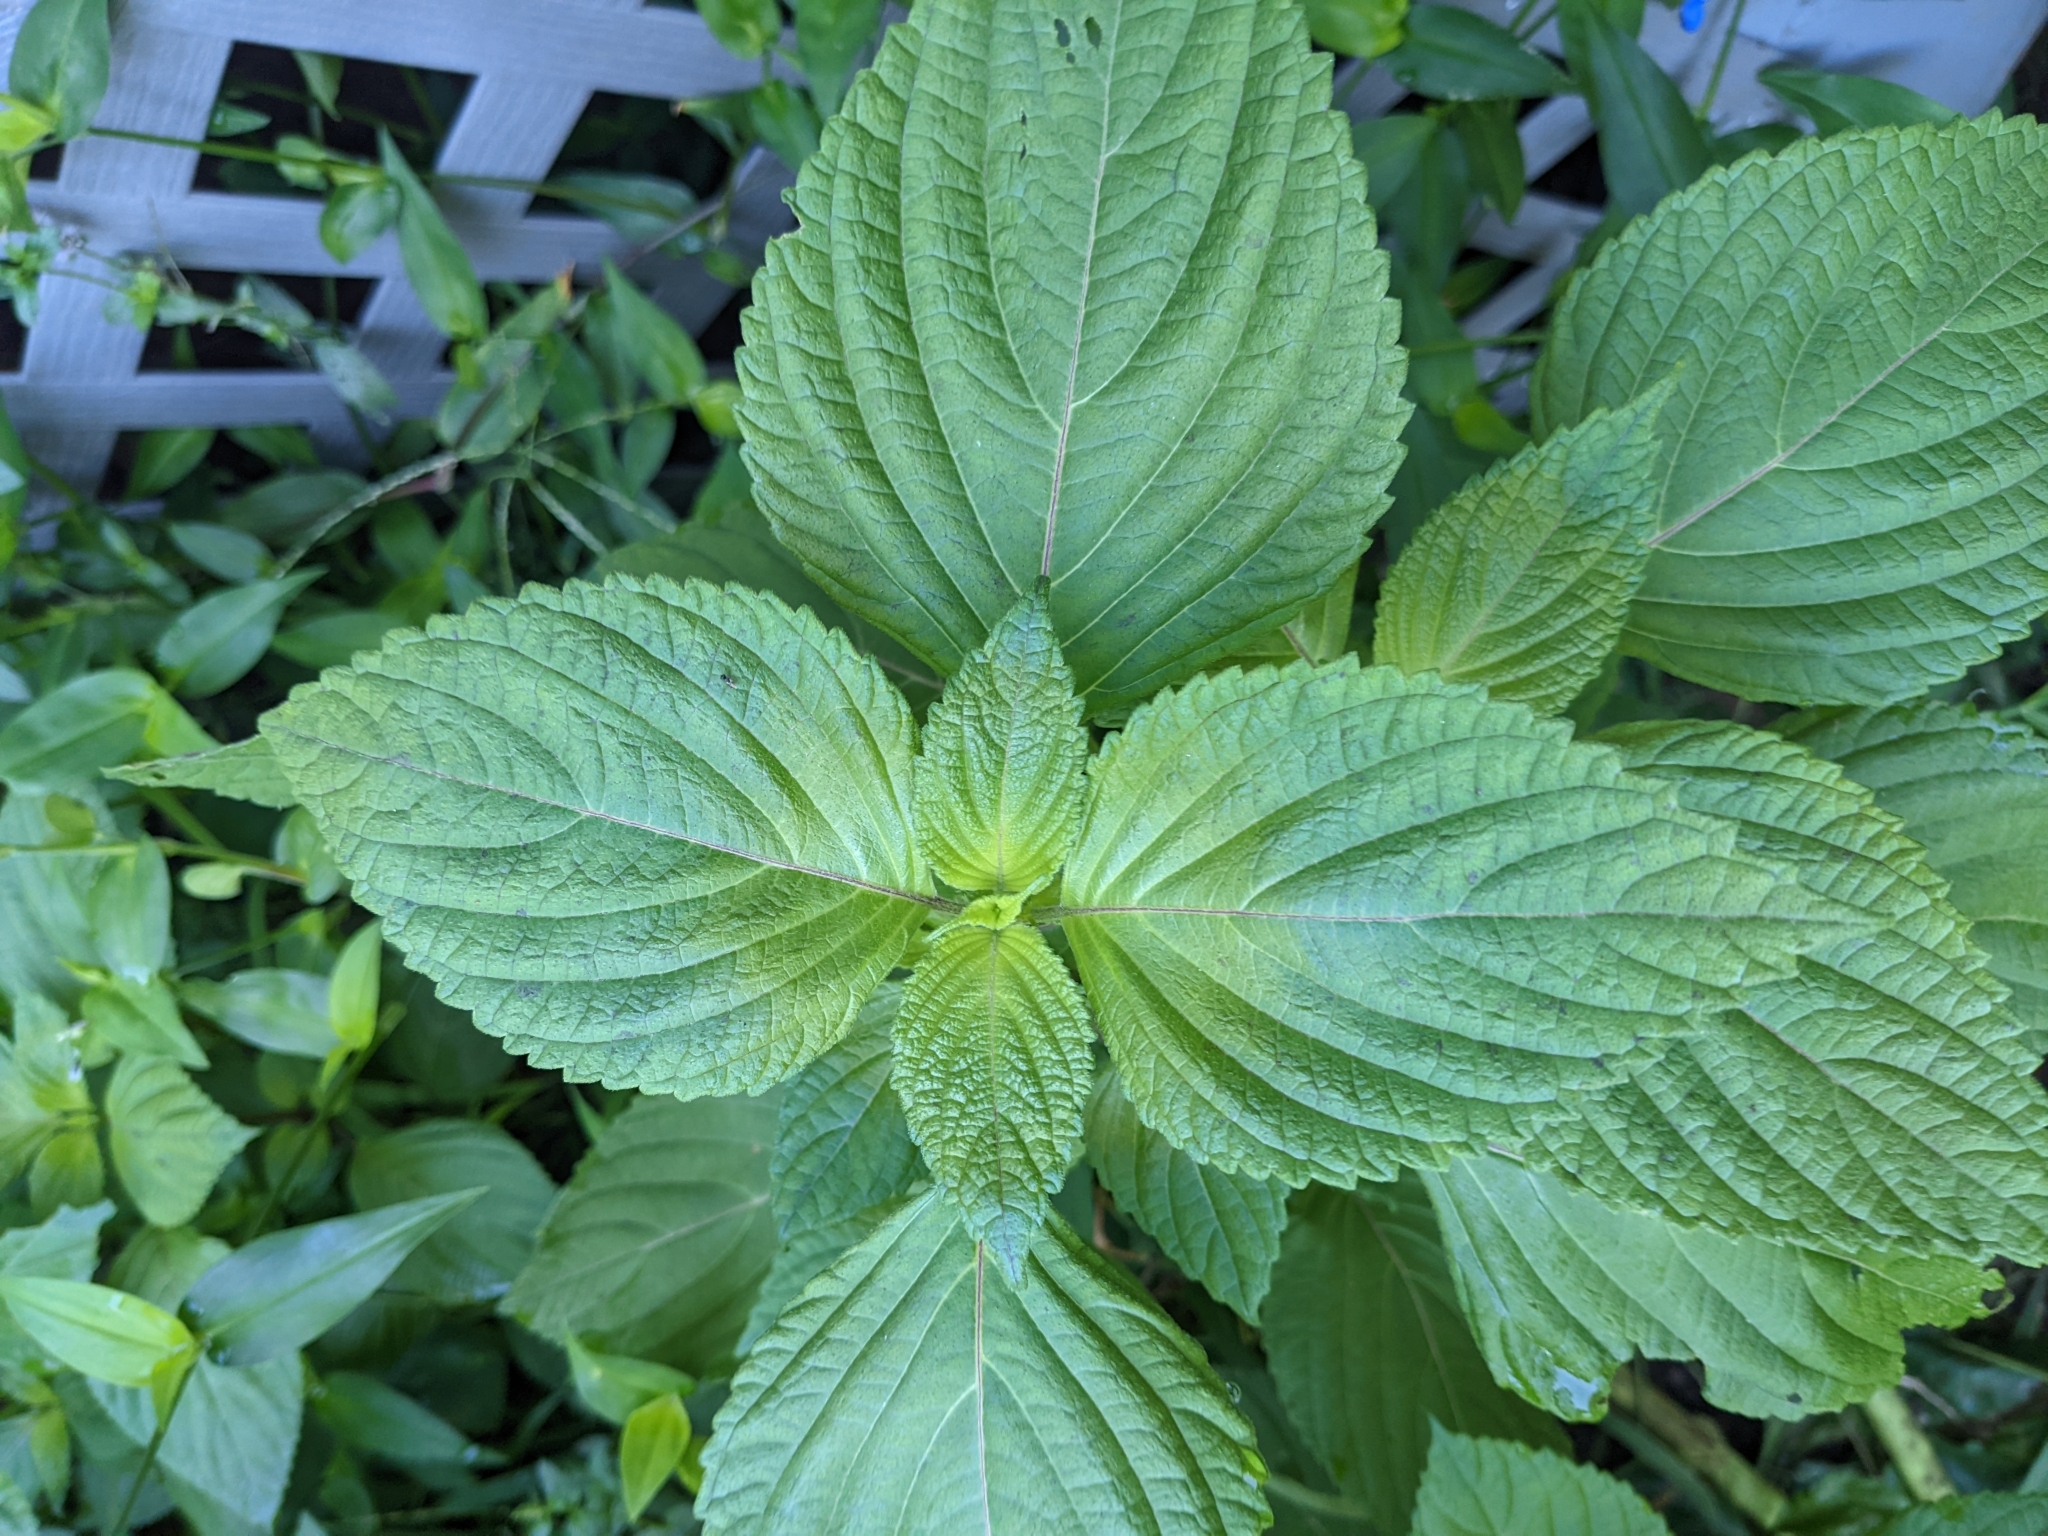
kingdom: Plantae
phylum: Tracheophyta
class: Magnoliopsida
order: Lamiales
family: Lamiaceae
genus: Perilla
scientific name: Perilla frutescens
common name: Perilla
